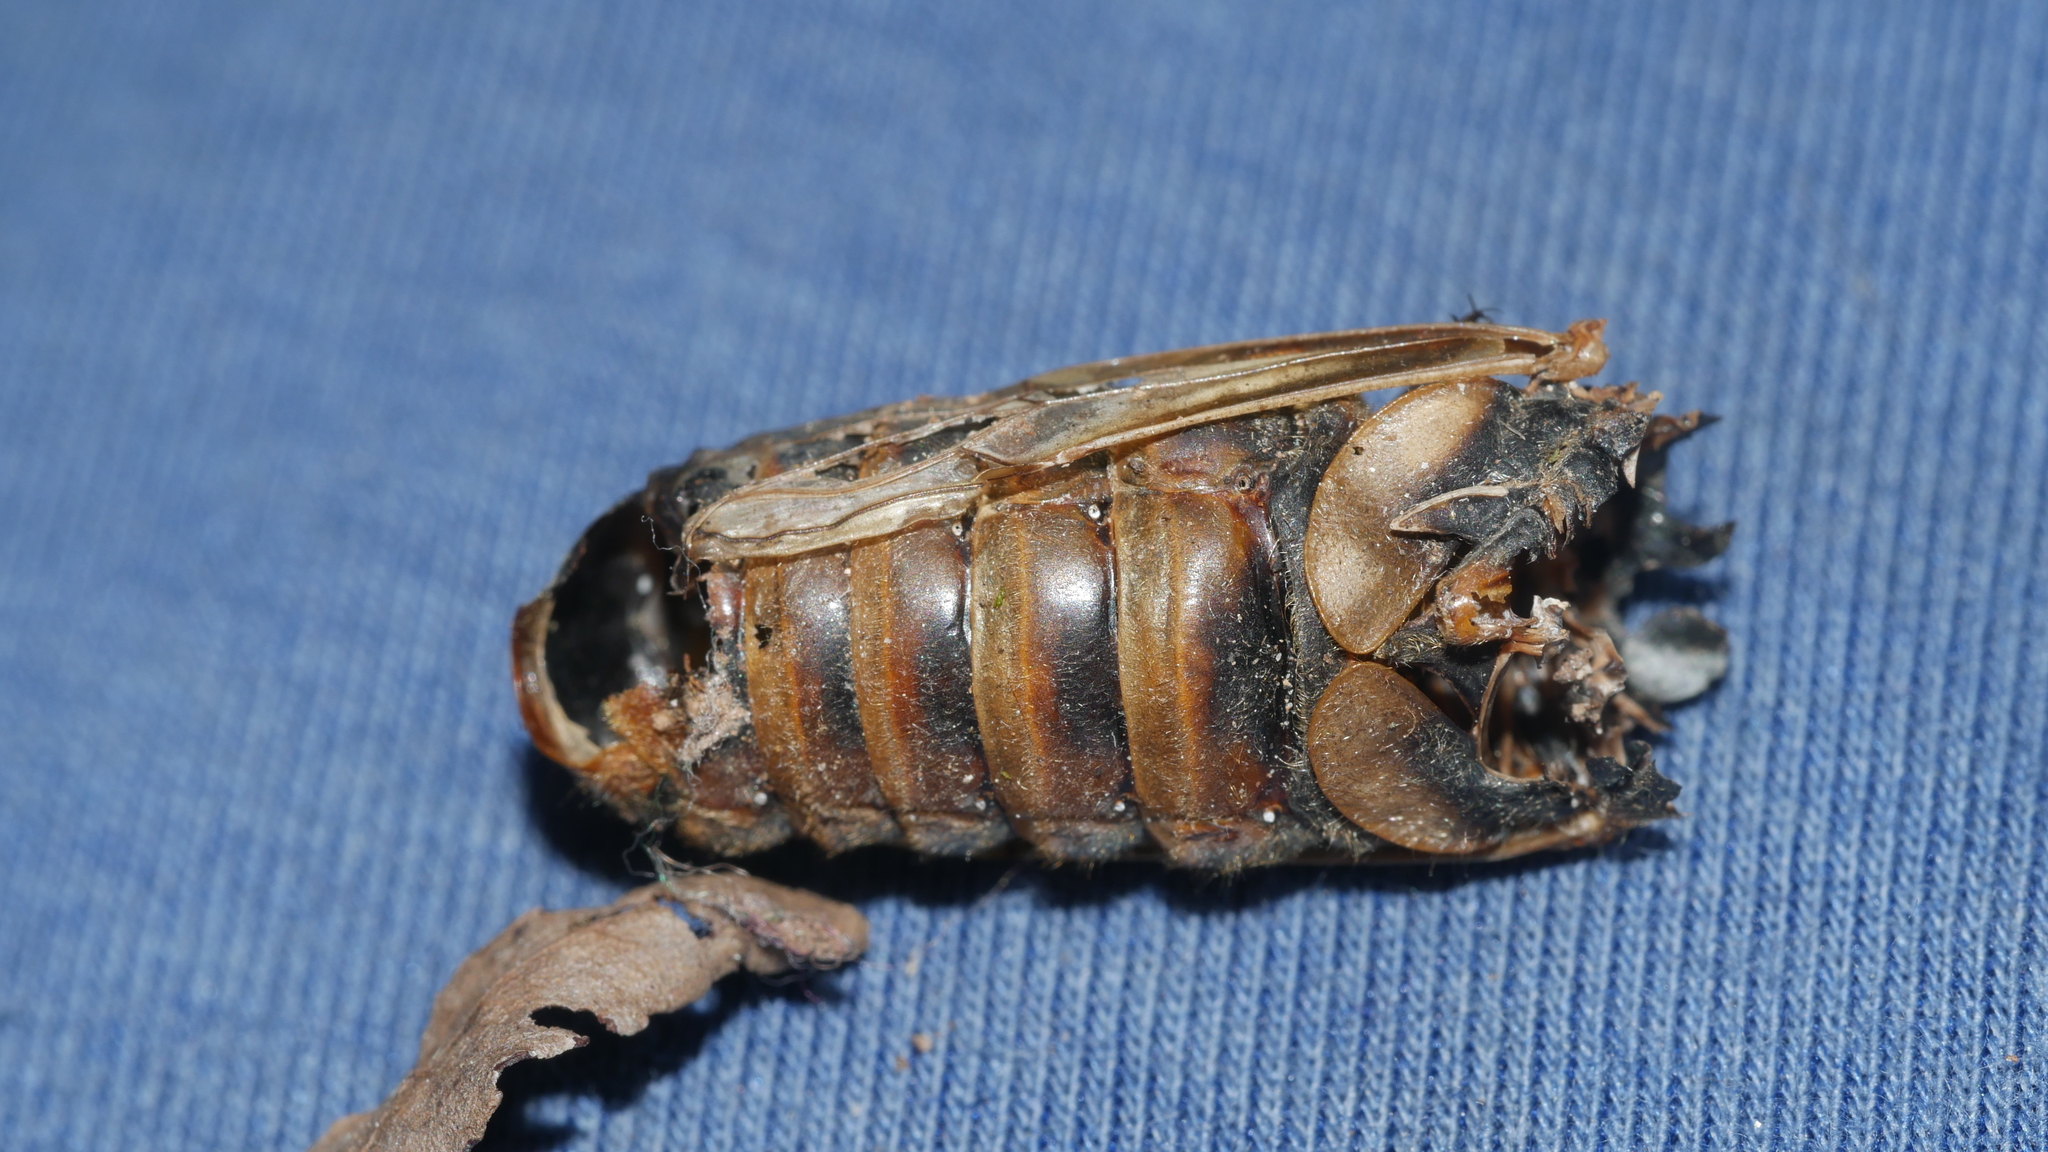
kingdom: Animalia
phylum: Arthropoda
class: Insecta
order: Hemiptera
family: Cicadidae
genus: Magicicada
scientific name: Magicicada septendecim
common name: Periodical cicada
